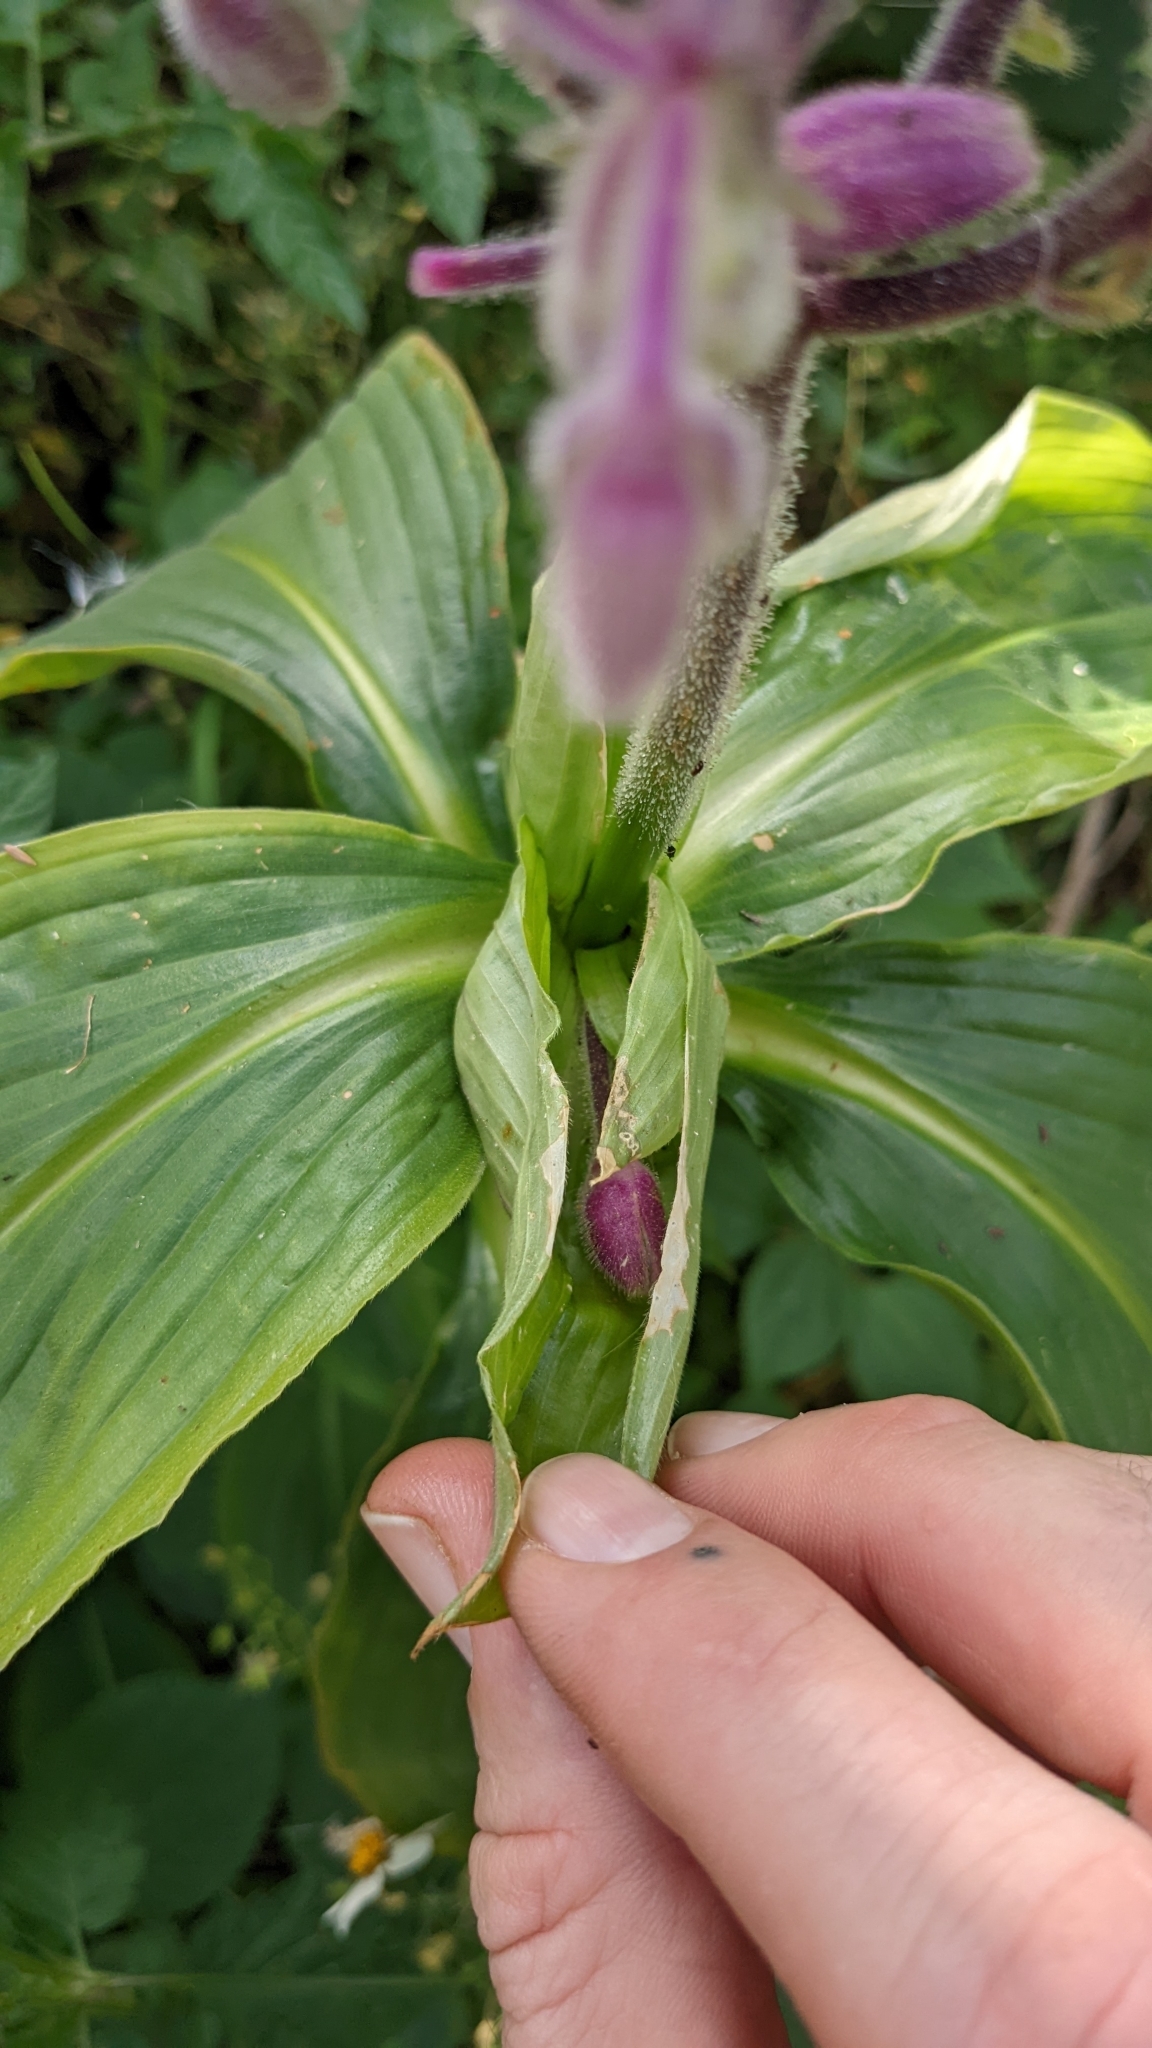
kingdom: Plantae
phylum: Tracheophyta
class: Liliopsida
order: Commelinales
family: Commelinaceae
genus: Tinantia
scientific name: Tinantia standleyi
